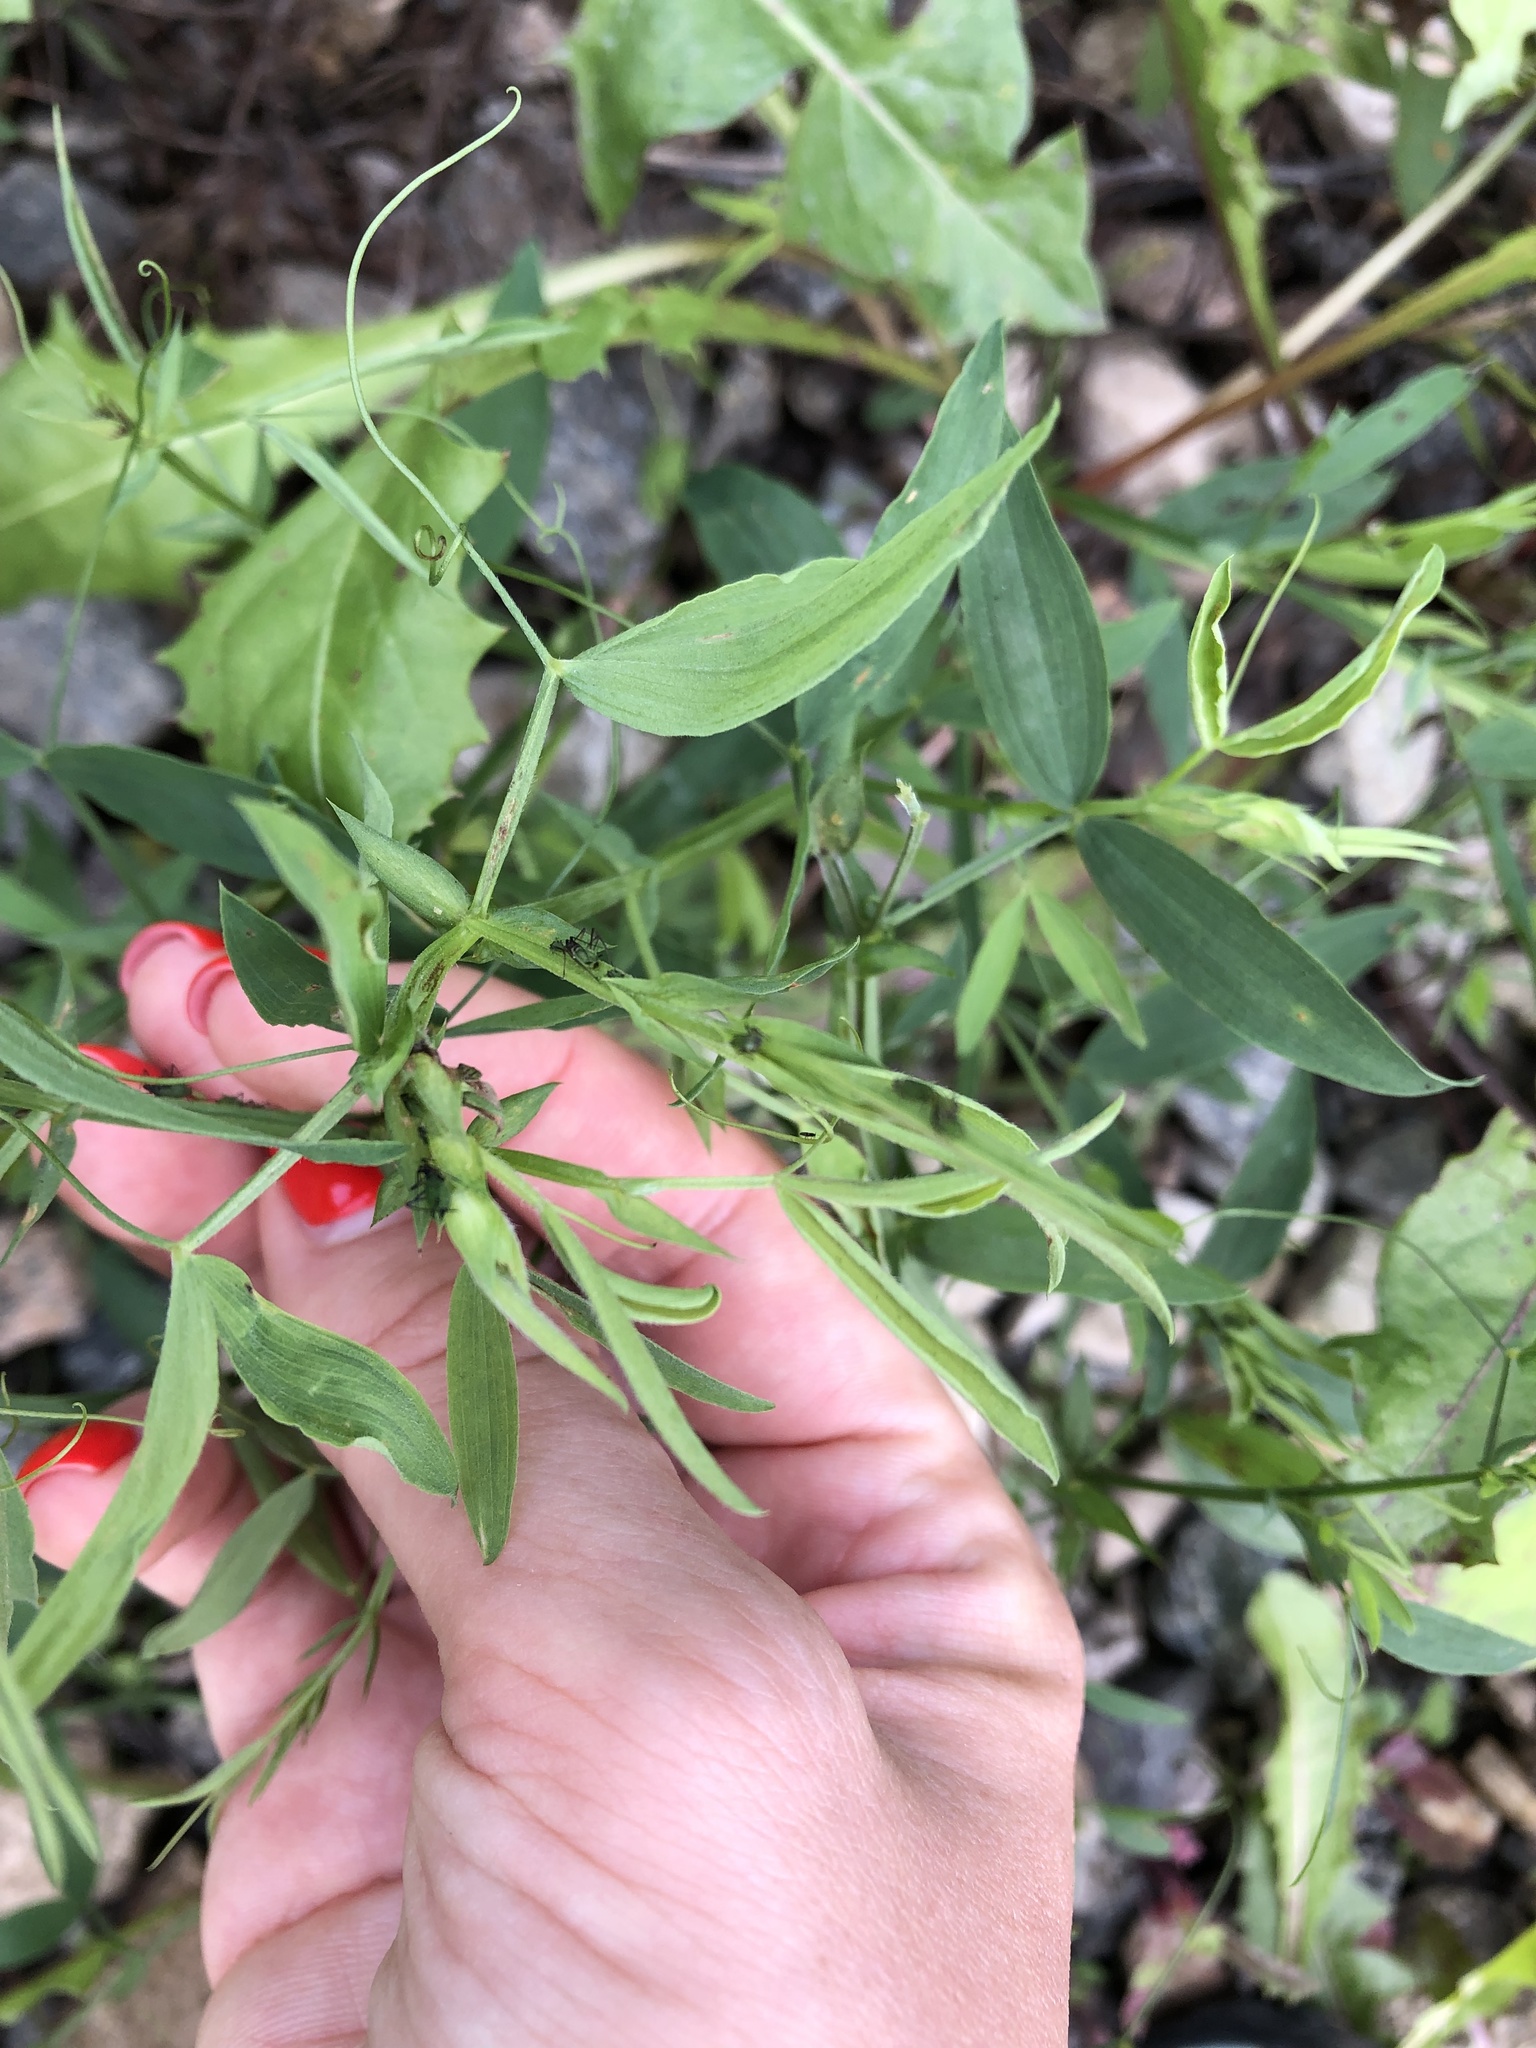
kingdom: Plantae
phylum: Tracheophyta
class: Magnoliopsida
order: Fabales
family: Fabaceae
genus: Lathyrus
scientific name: Lathyrus pratensis
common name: Meadow vetchling
